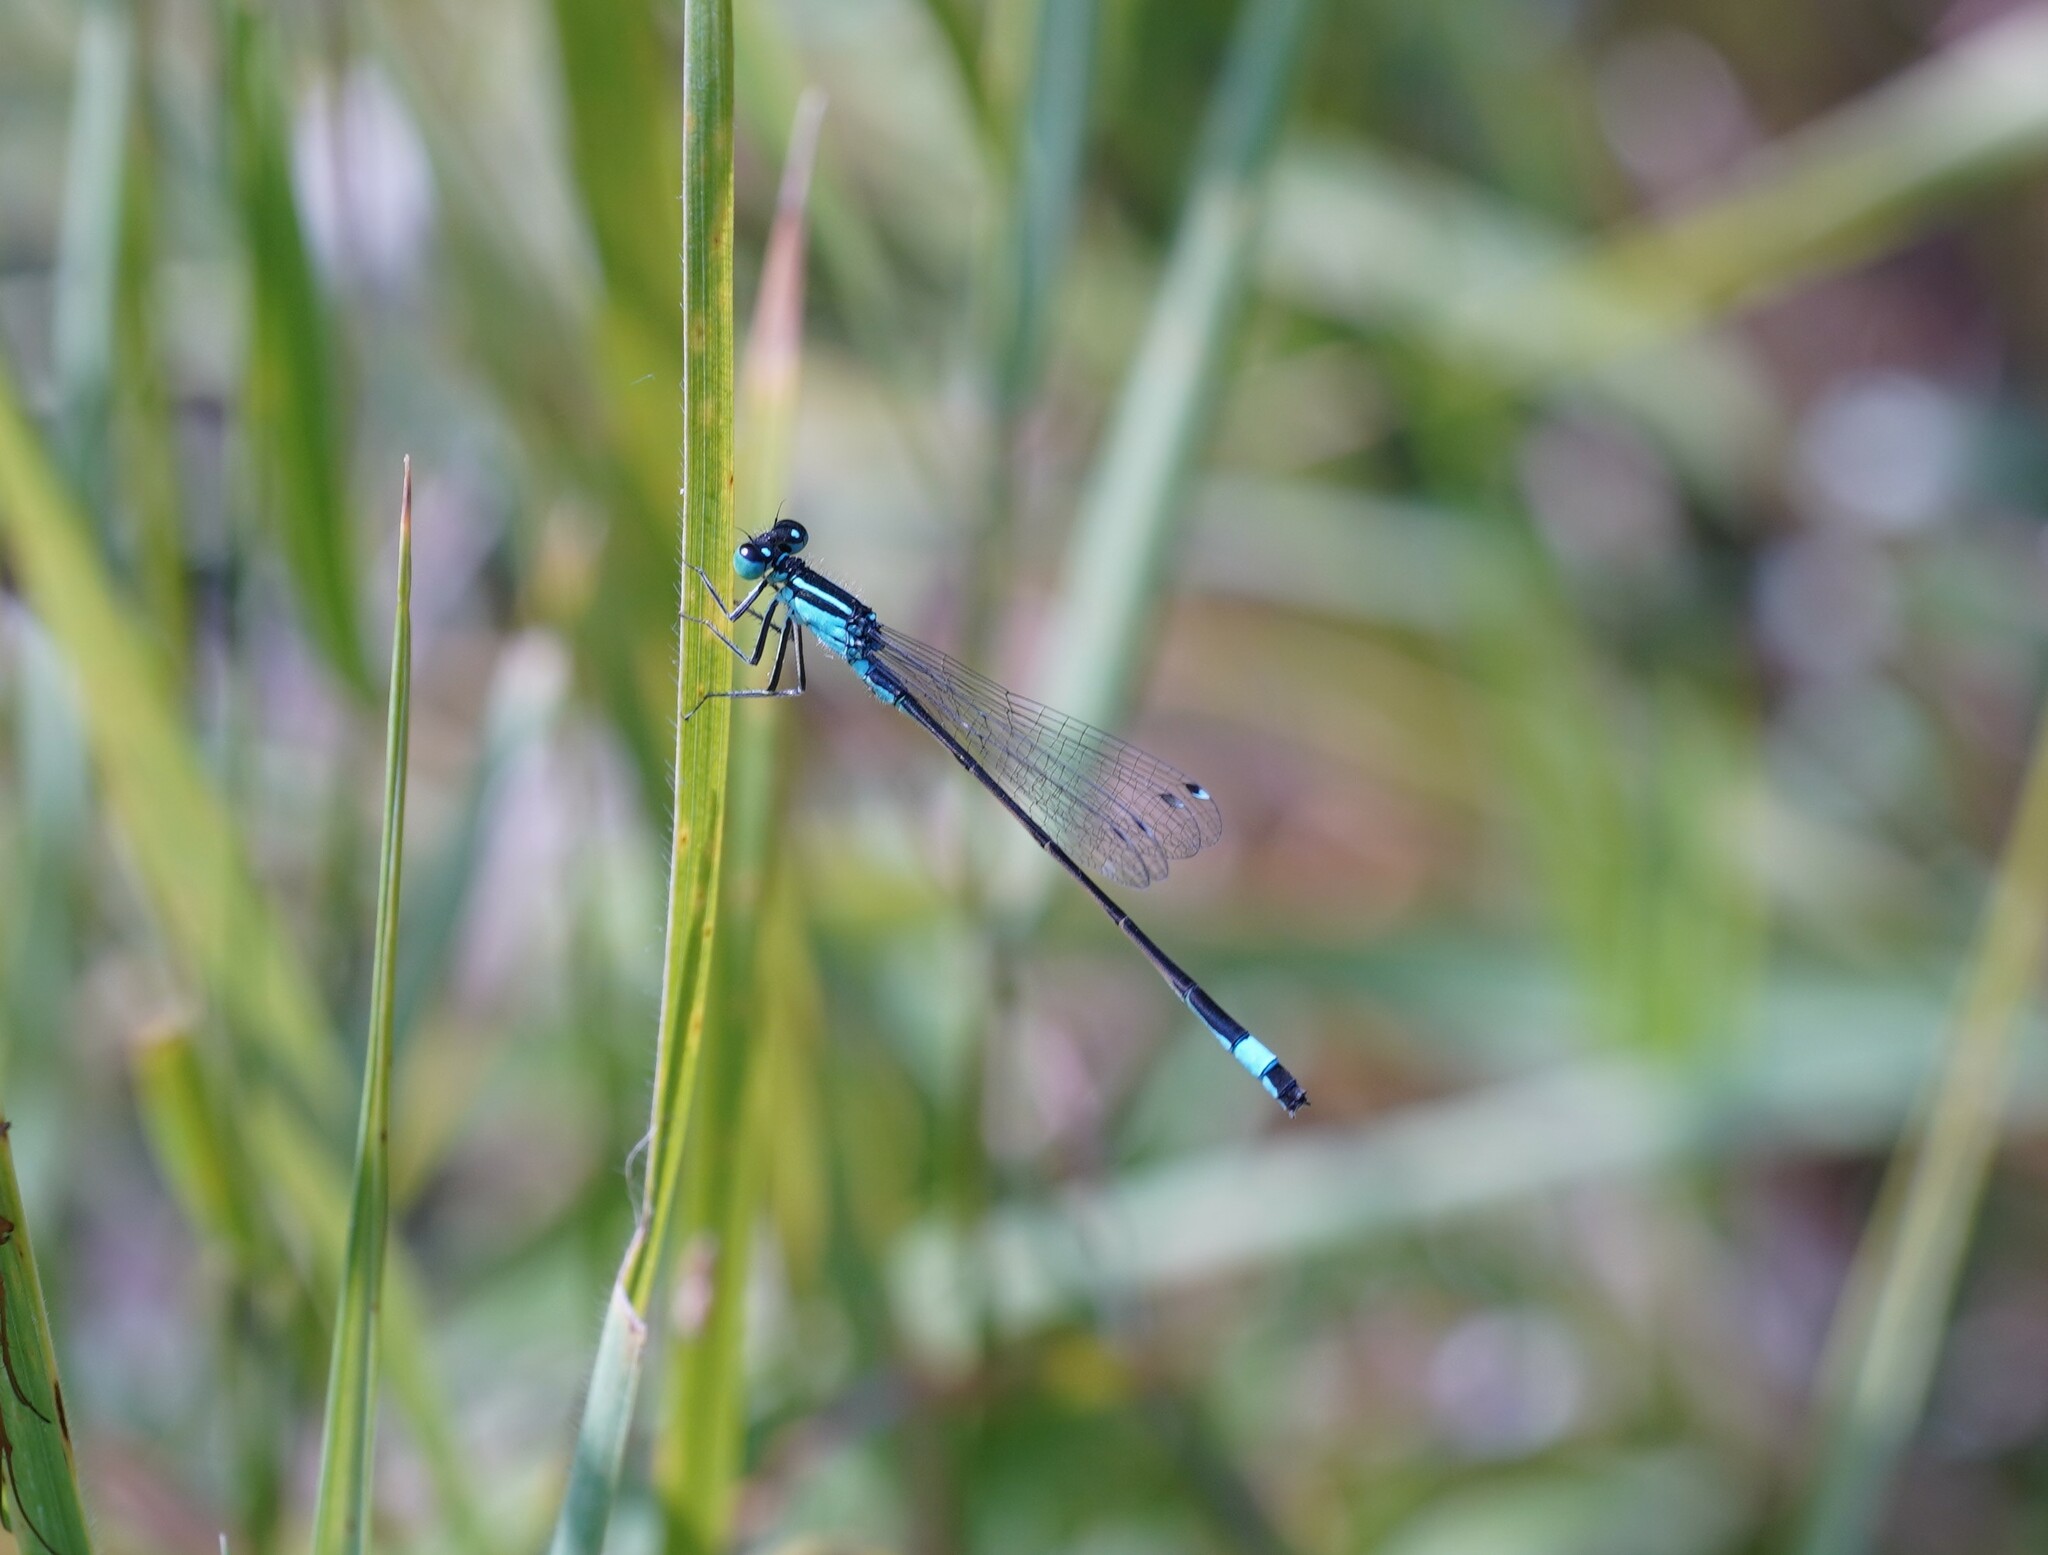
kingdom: Animalia
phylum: Arthropoda
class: Insecta
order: Odonata
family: Coenagrionidae
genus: Ischnura
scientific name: Ischnura elegans
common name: Blue-tailed damselfly
